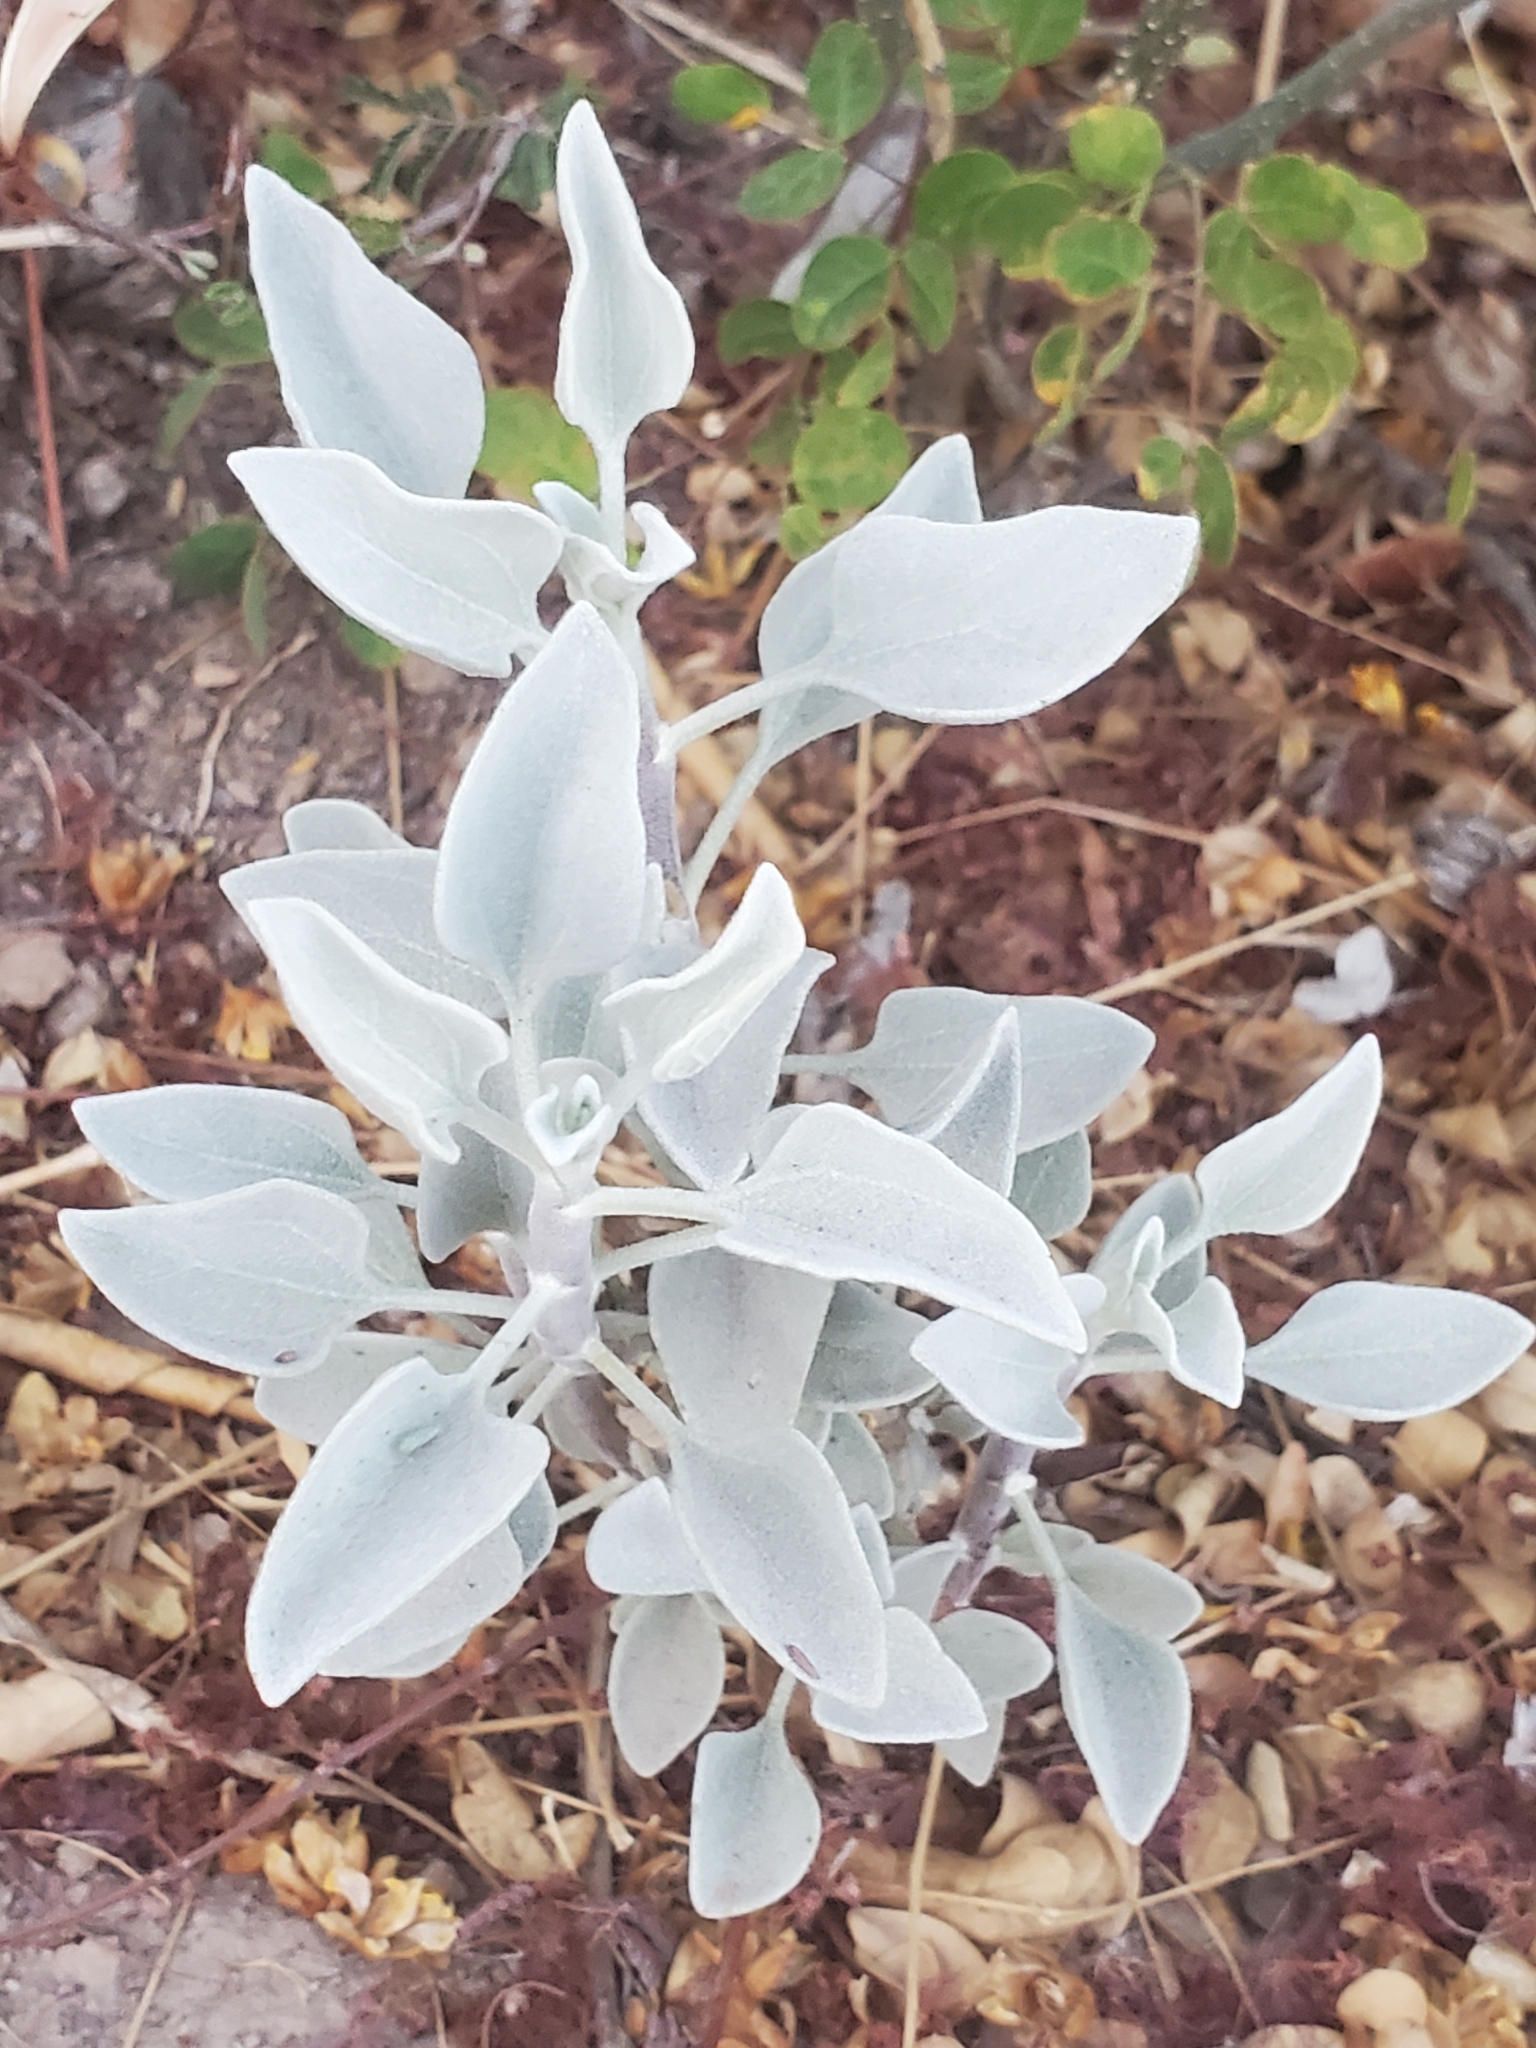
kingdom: Plantae
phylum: Tracheophyta
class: Magnoliopsida
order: Asterales
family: Asteraceae
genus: Encelia
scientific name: Encelia farinosa
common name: Brittlebush
